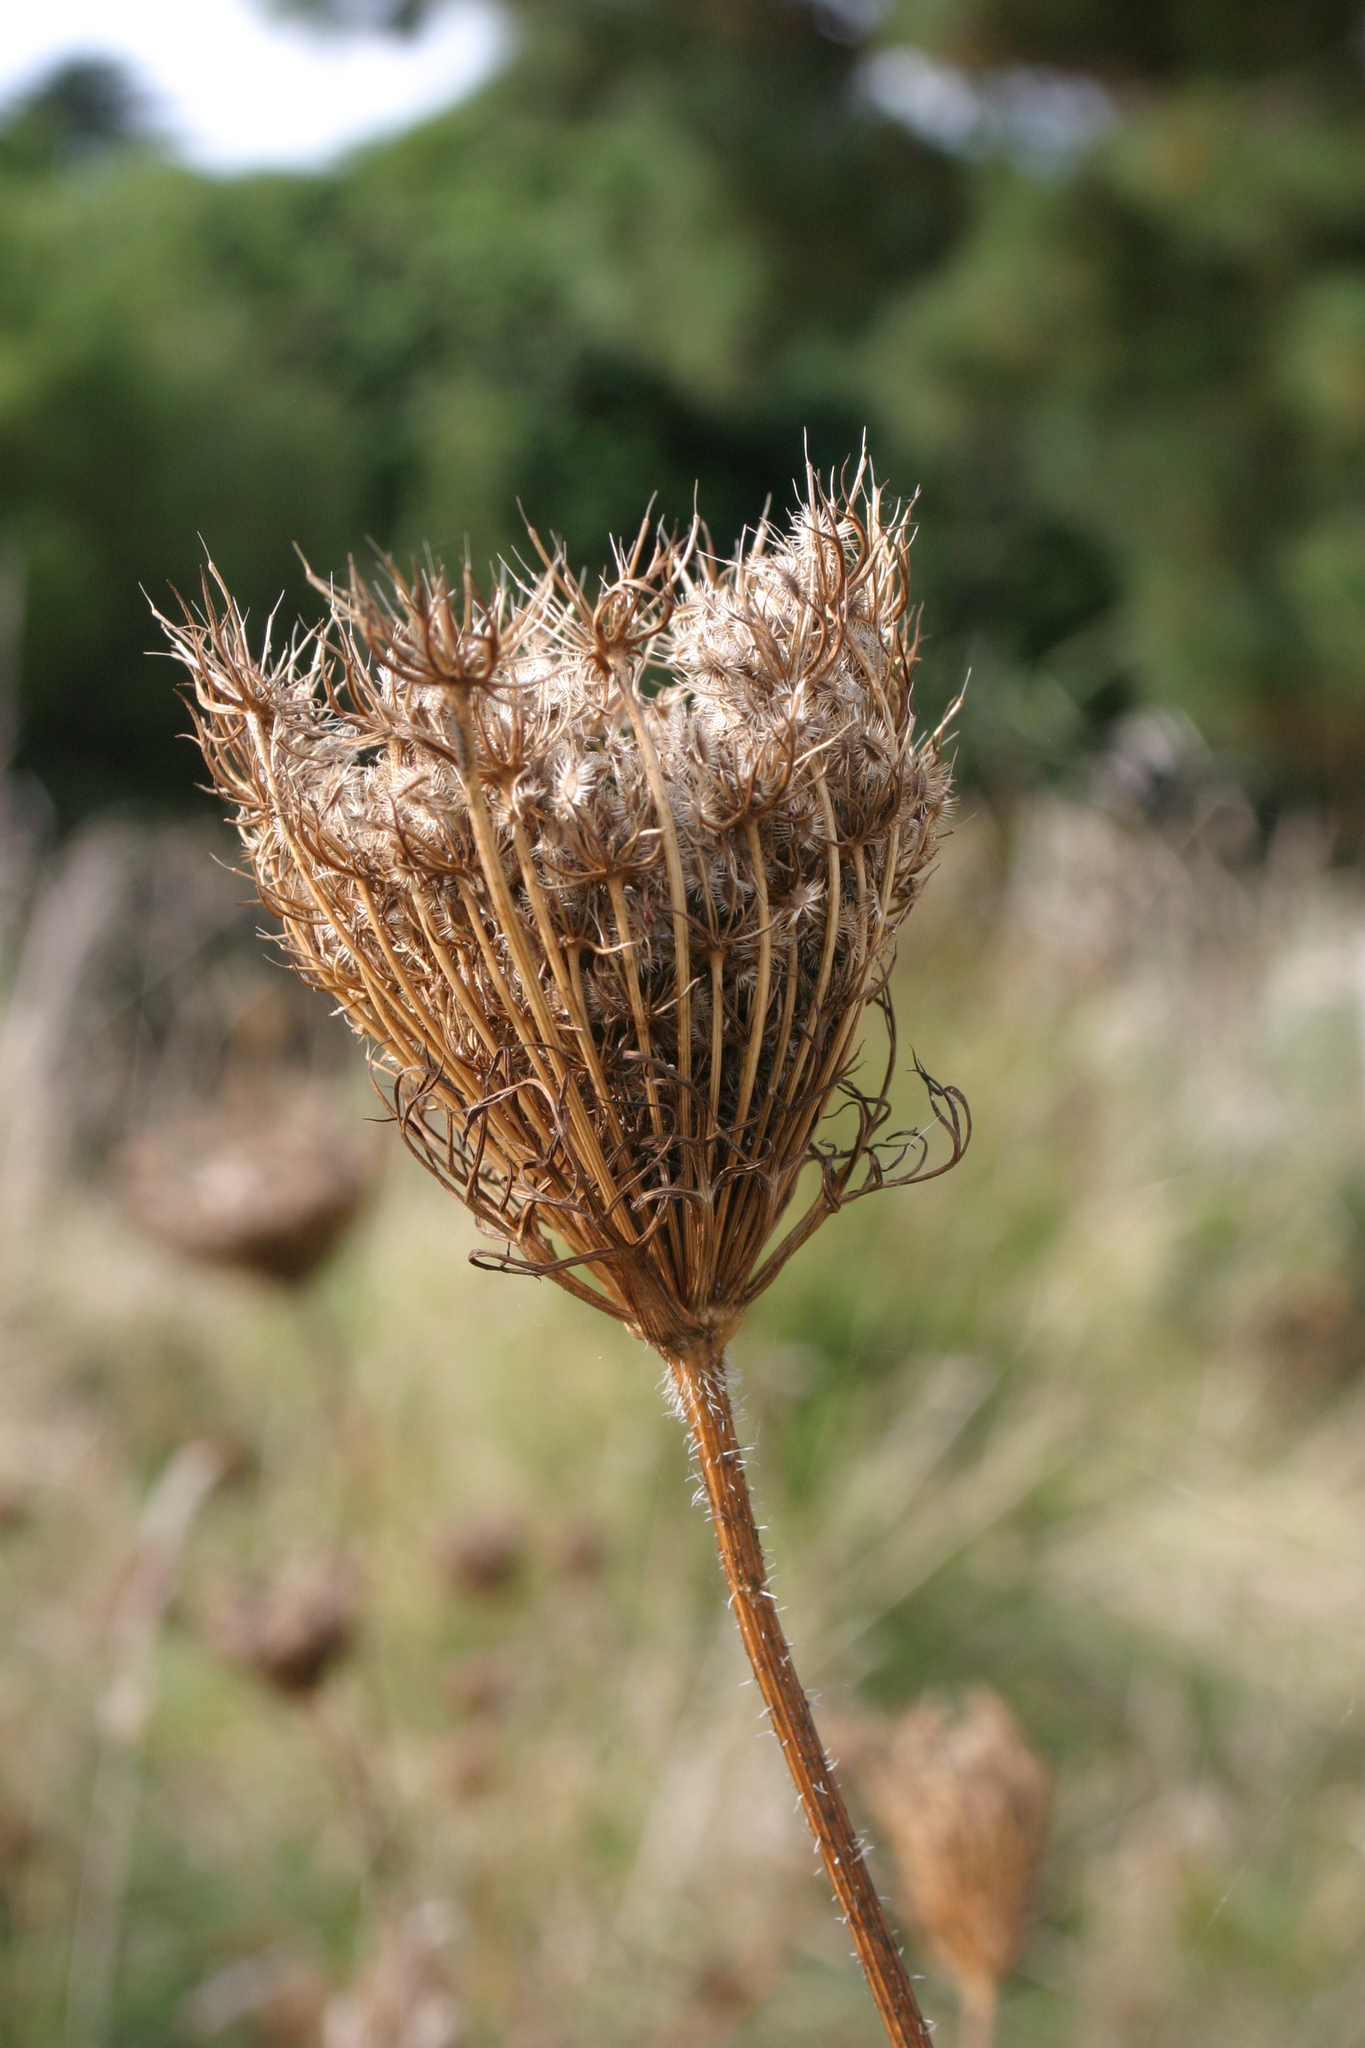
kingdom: Plantae
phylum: Tracheophyta
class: Magnoliopsida
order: Apiales
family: Apiaceae
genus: Daucus
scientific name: Daucus carota
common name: Wild carrot
